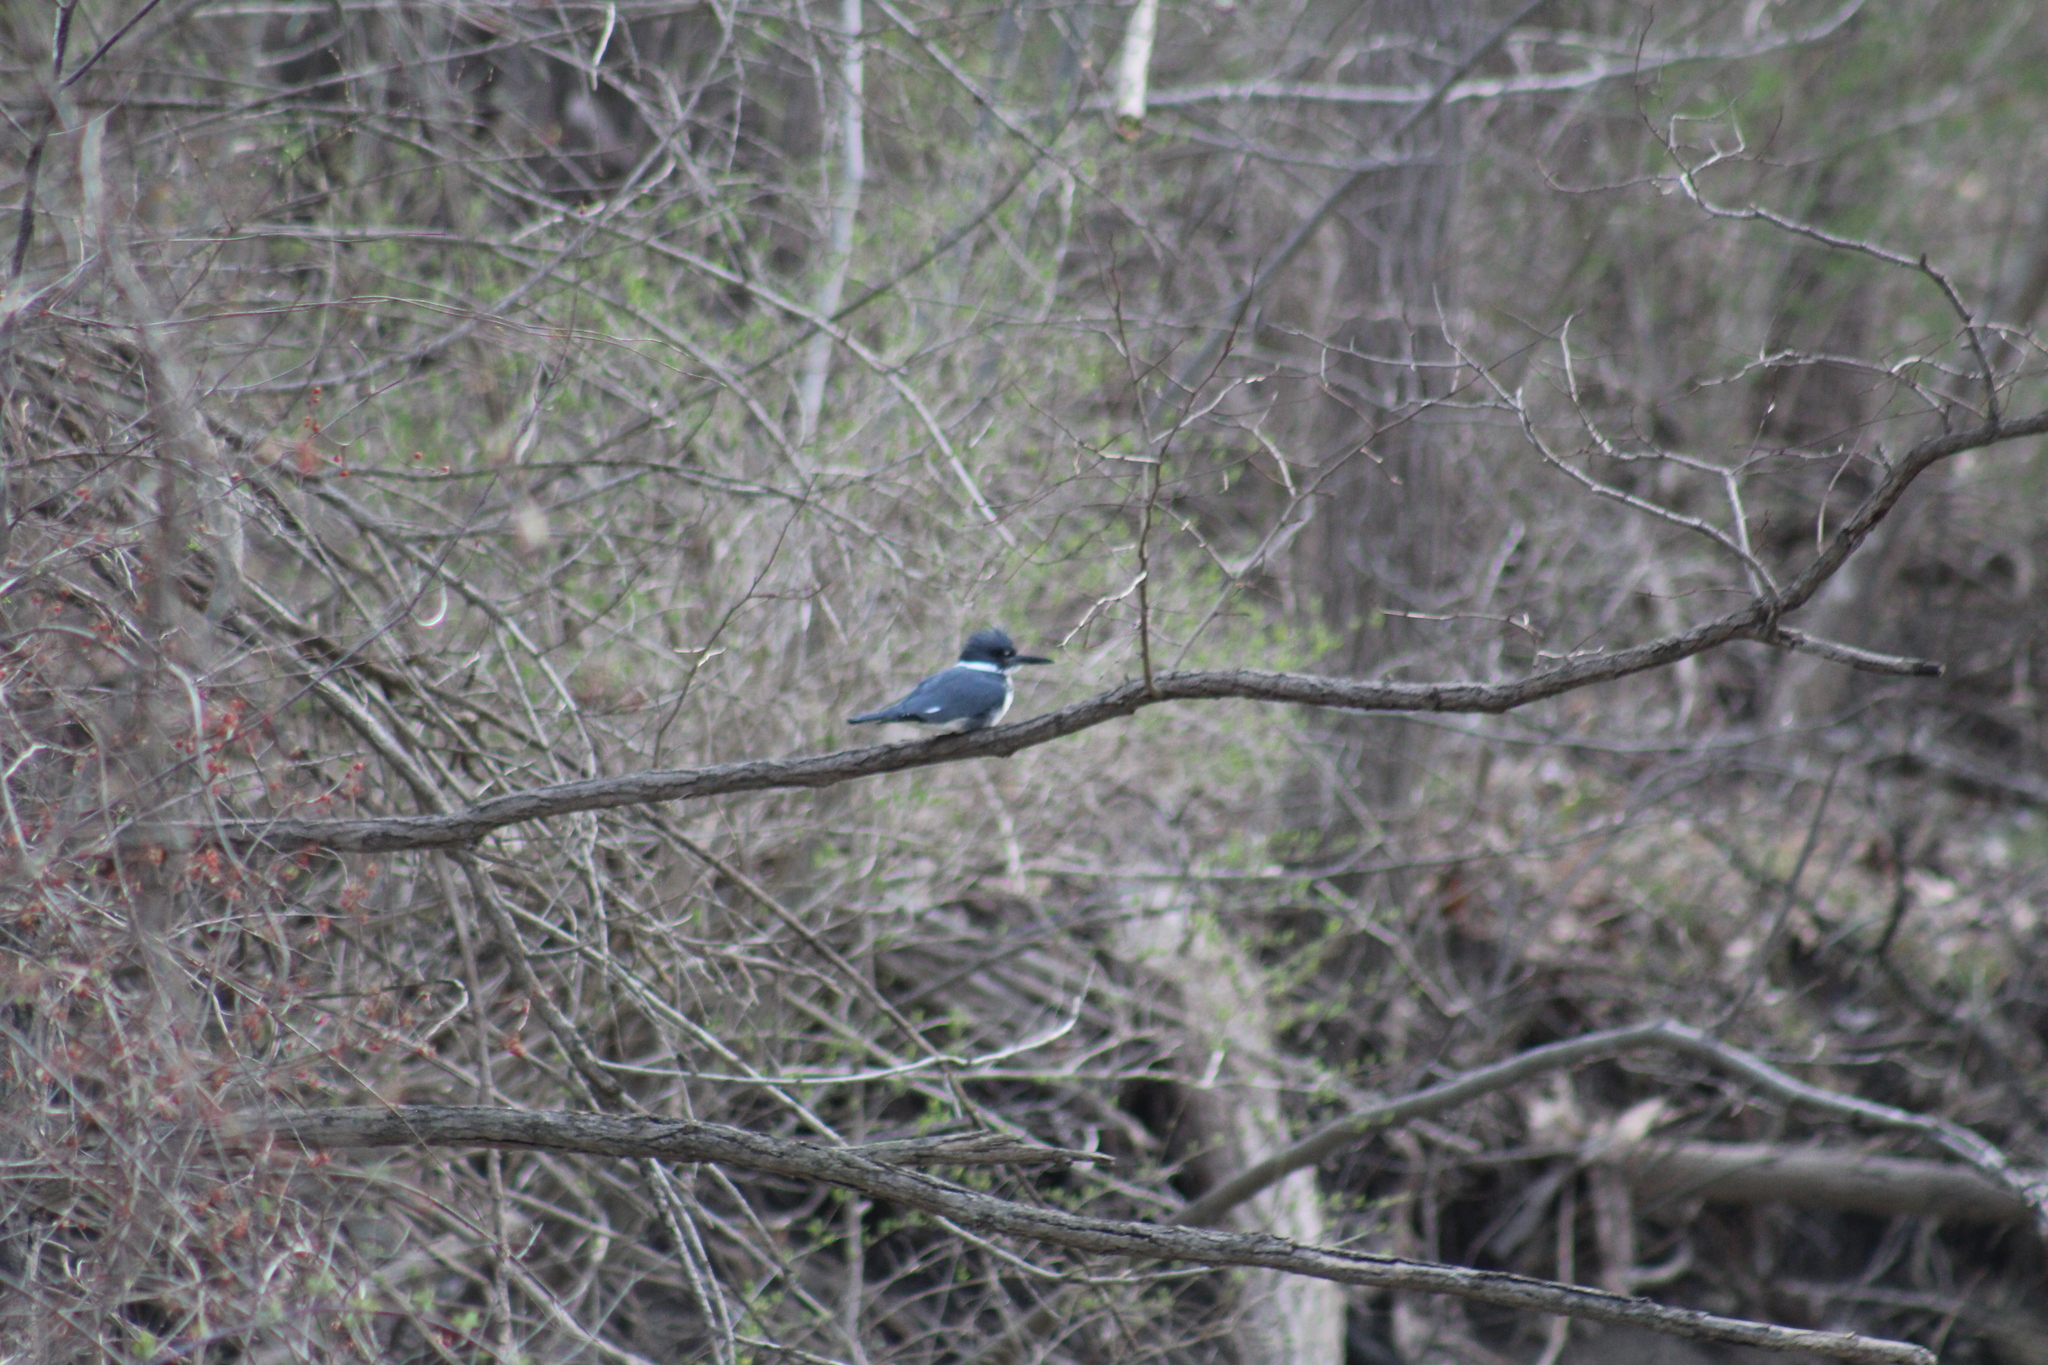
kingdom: Animalia
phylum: Chordata
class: Aves
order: Coraciiformes
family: Alcedinidae
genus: Megaceryle
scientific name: Megaceryle alcyon
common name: Belted kingfisher
